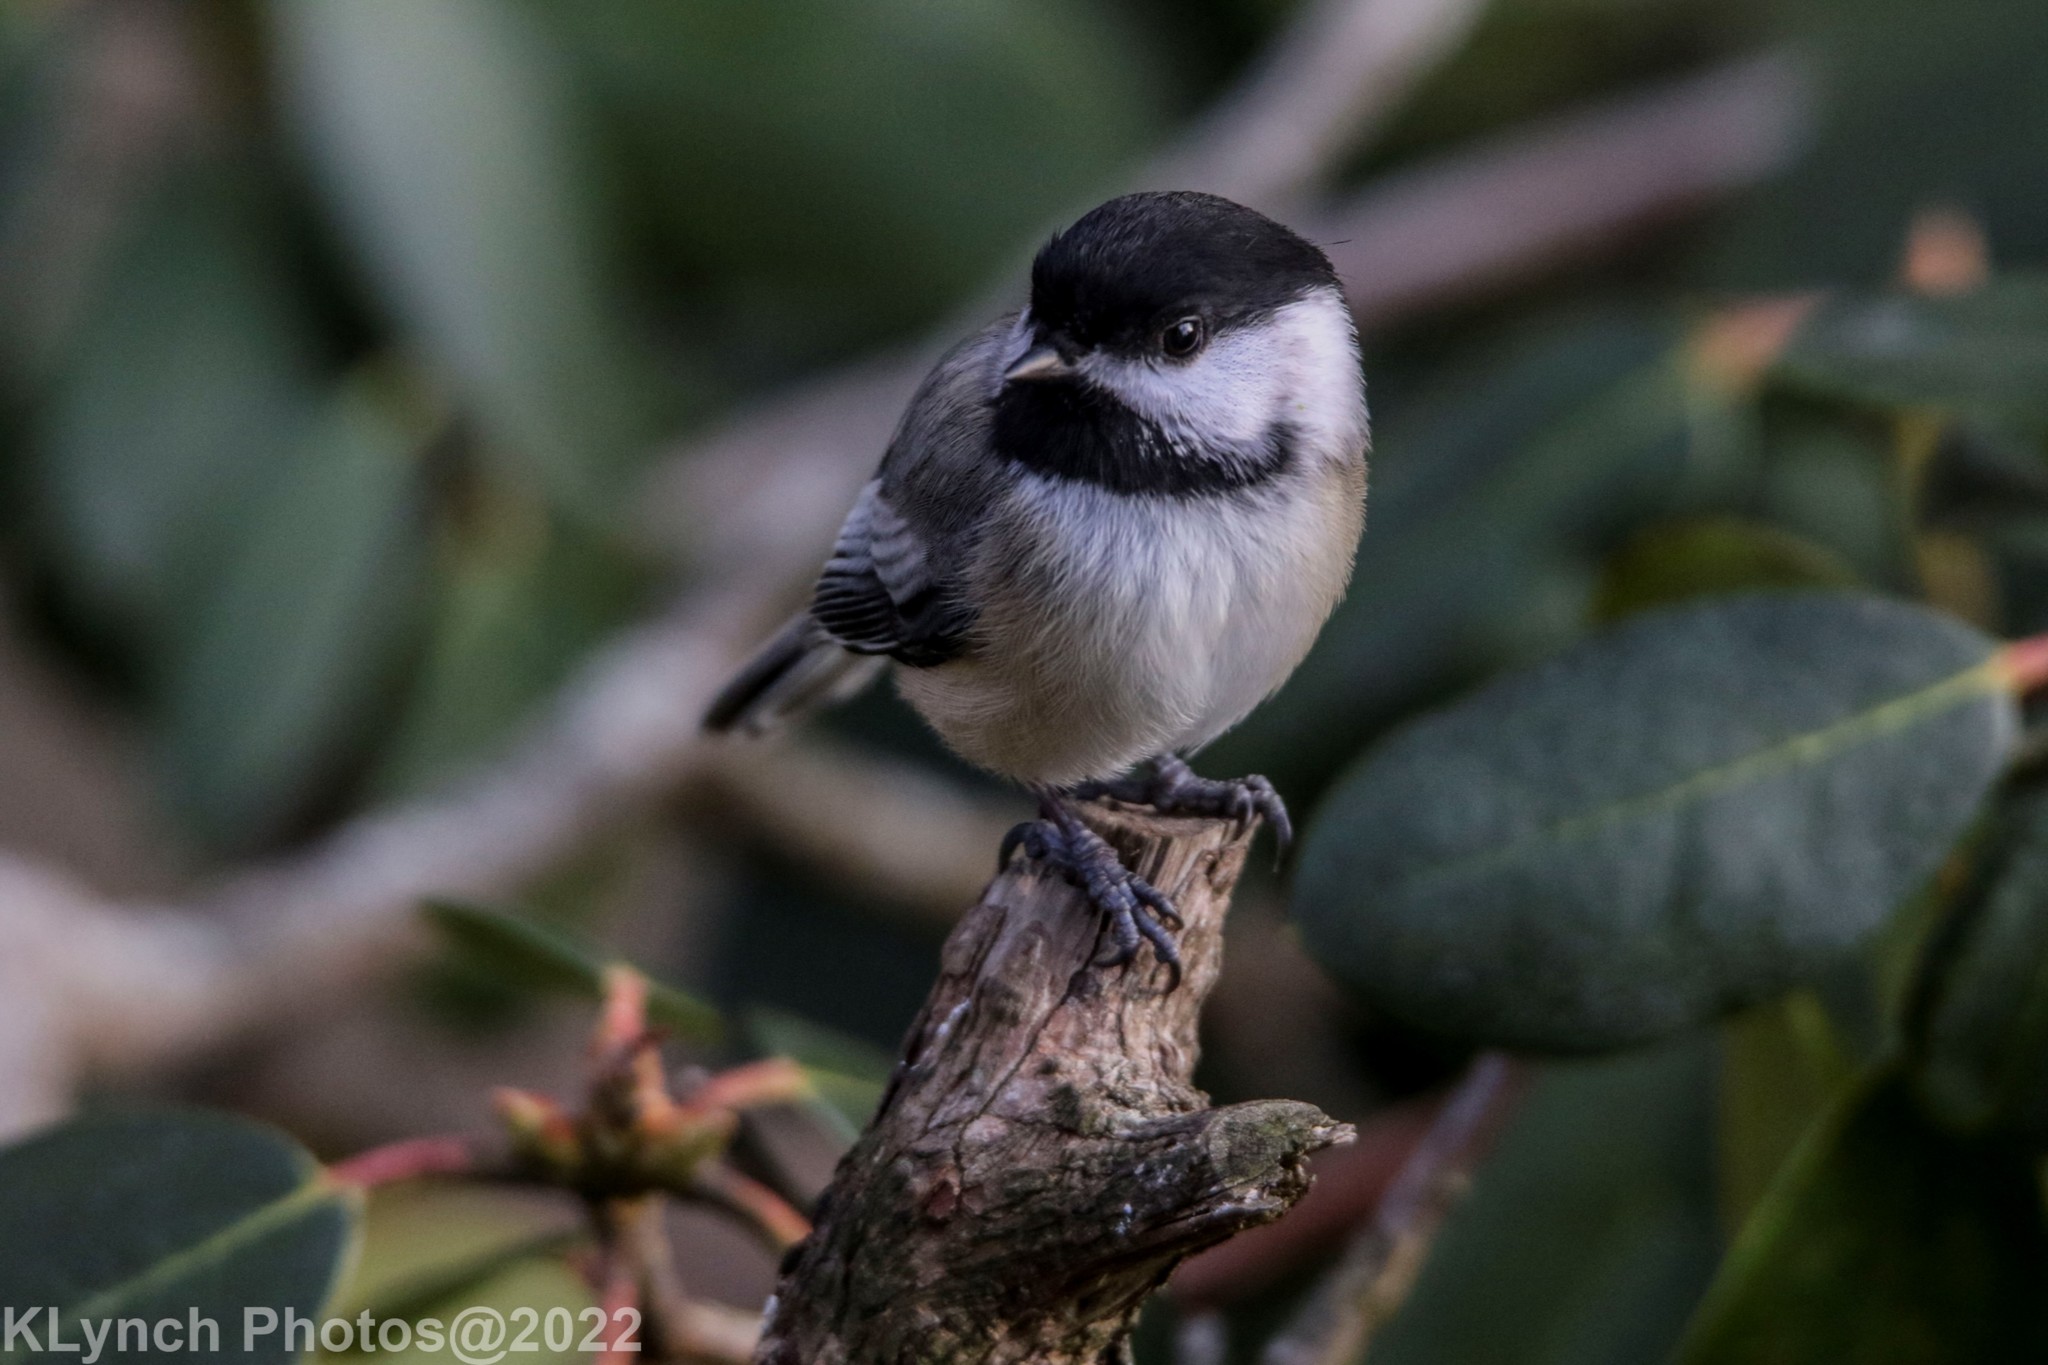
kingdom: Animalia
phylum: Chordata
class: Aves
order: Passeriformes
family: Paridae
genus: Poecile
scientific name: Poecile atricapillus
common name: Black-capped chickadee
